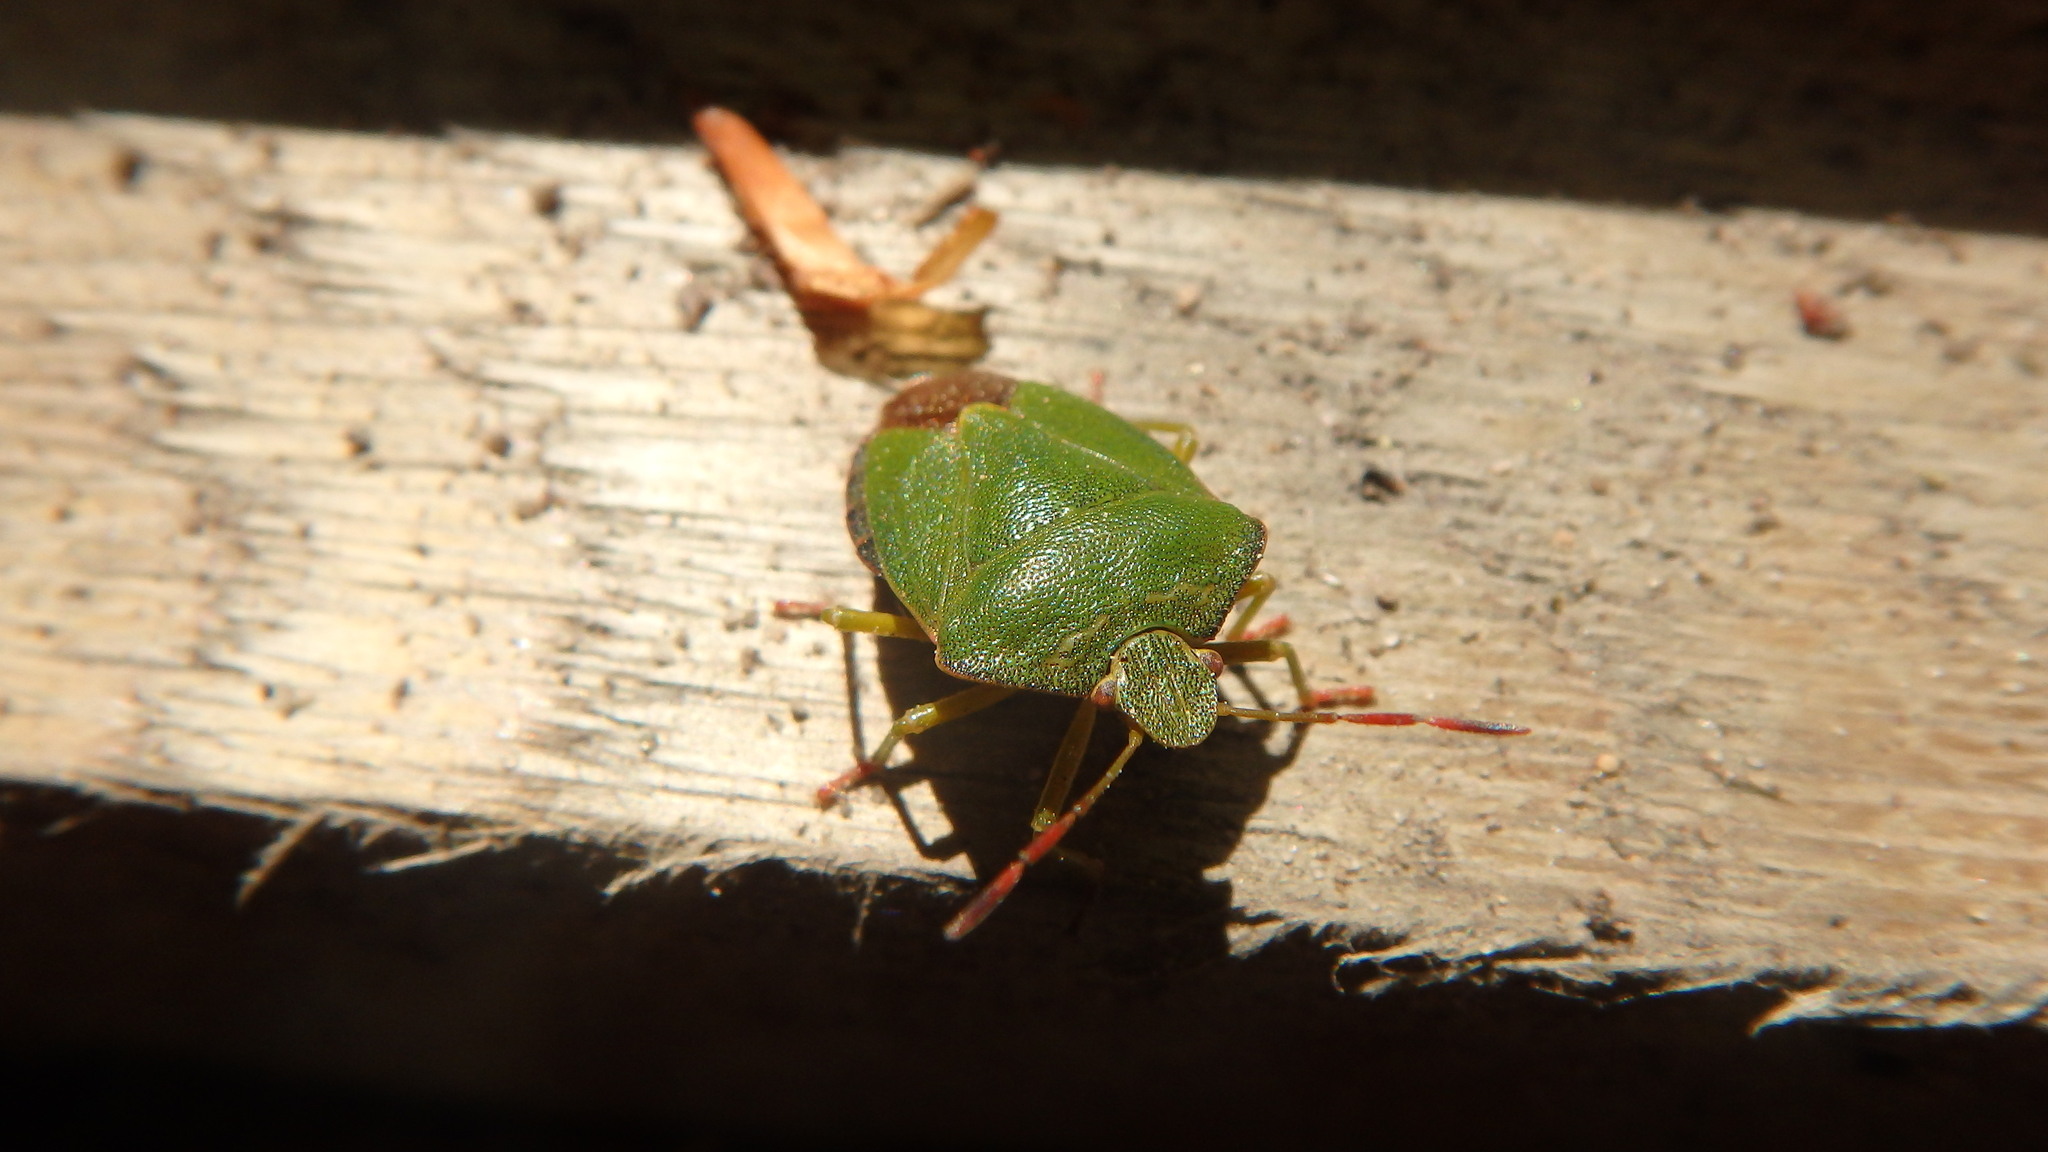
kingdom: Animalia
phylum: Arthropoda
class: Insecta
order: Hemiptera
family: Pentatomidae
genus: Palomena
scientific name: Palomena prasina
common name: Green shieldbug
